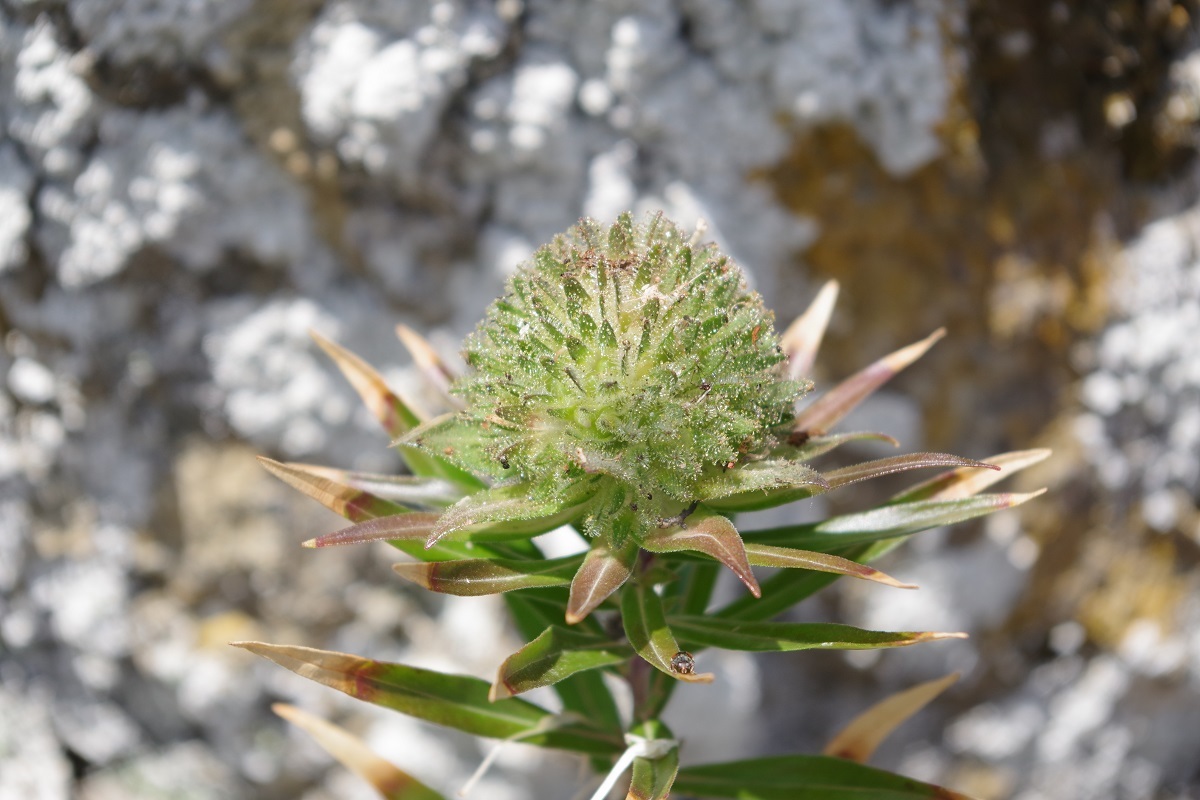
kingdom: Plantae
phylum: Tracheophyta
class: Magnoliopsida
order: Ericales
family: Polemoniaceae
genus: Collomia
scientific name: Collomia grandiflora
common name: California strawflower
